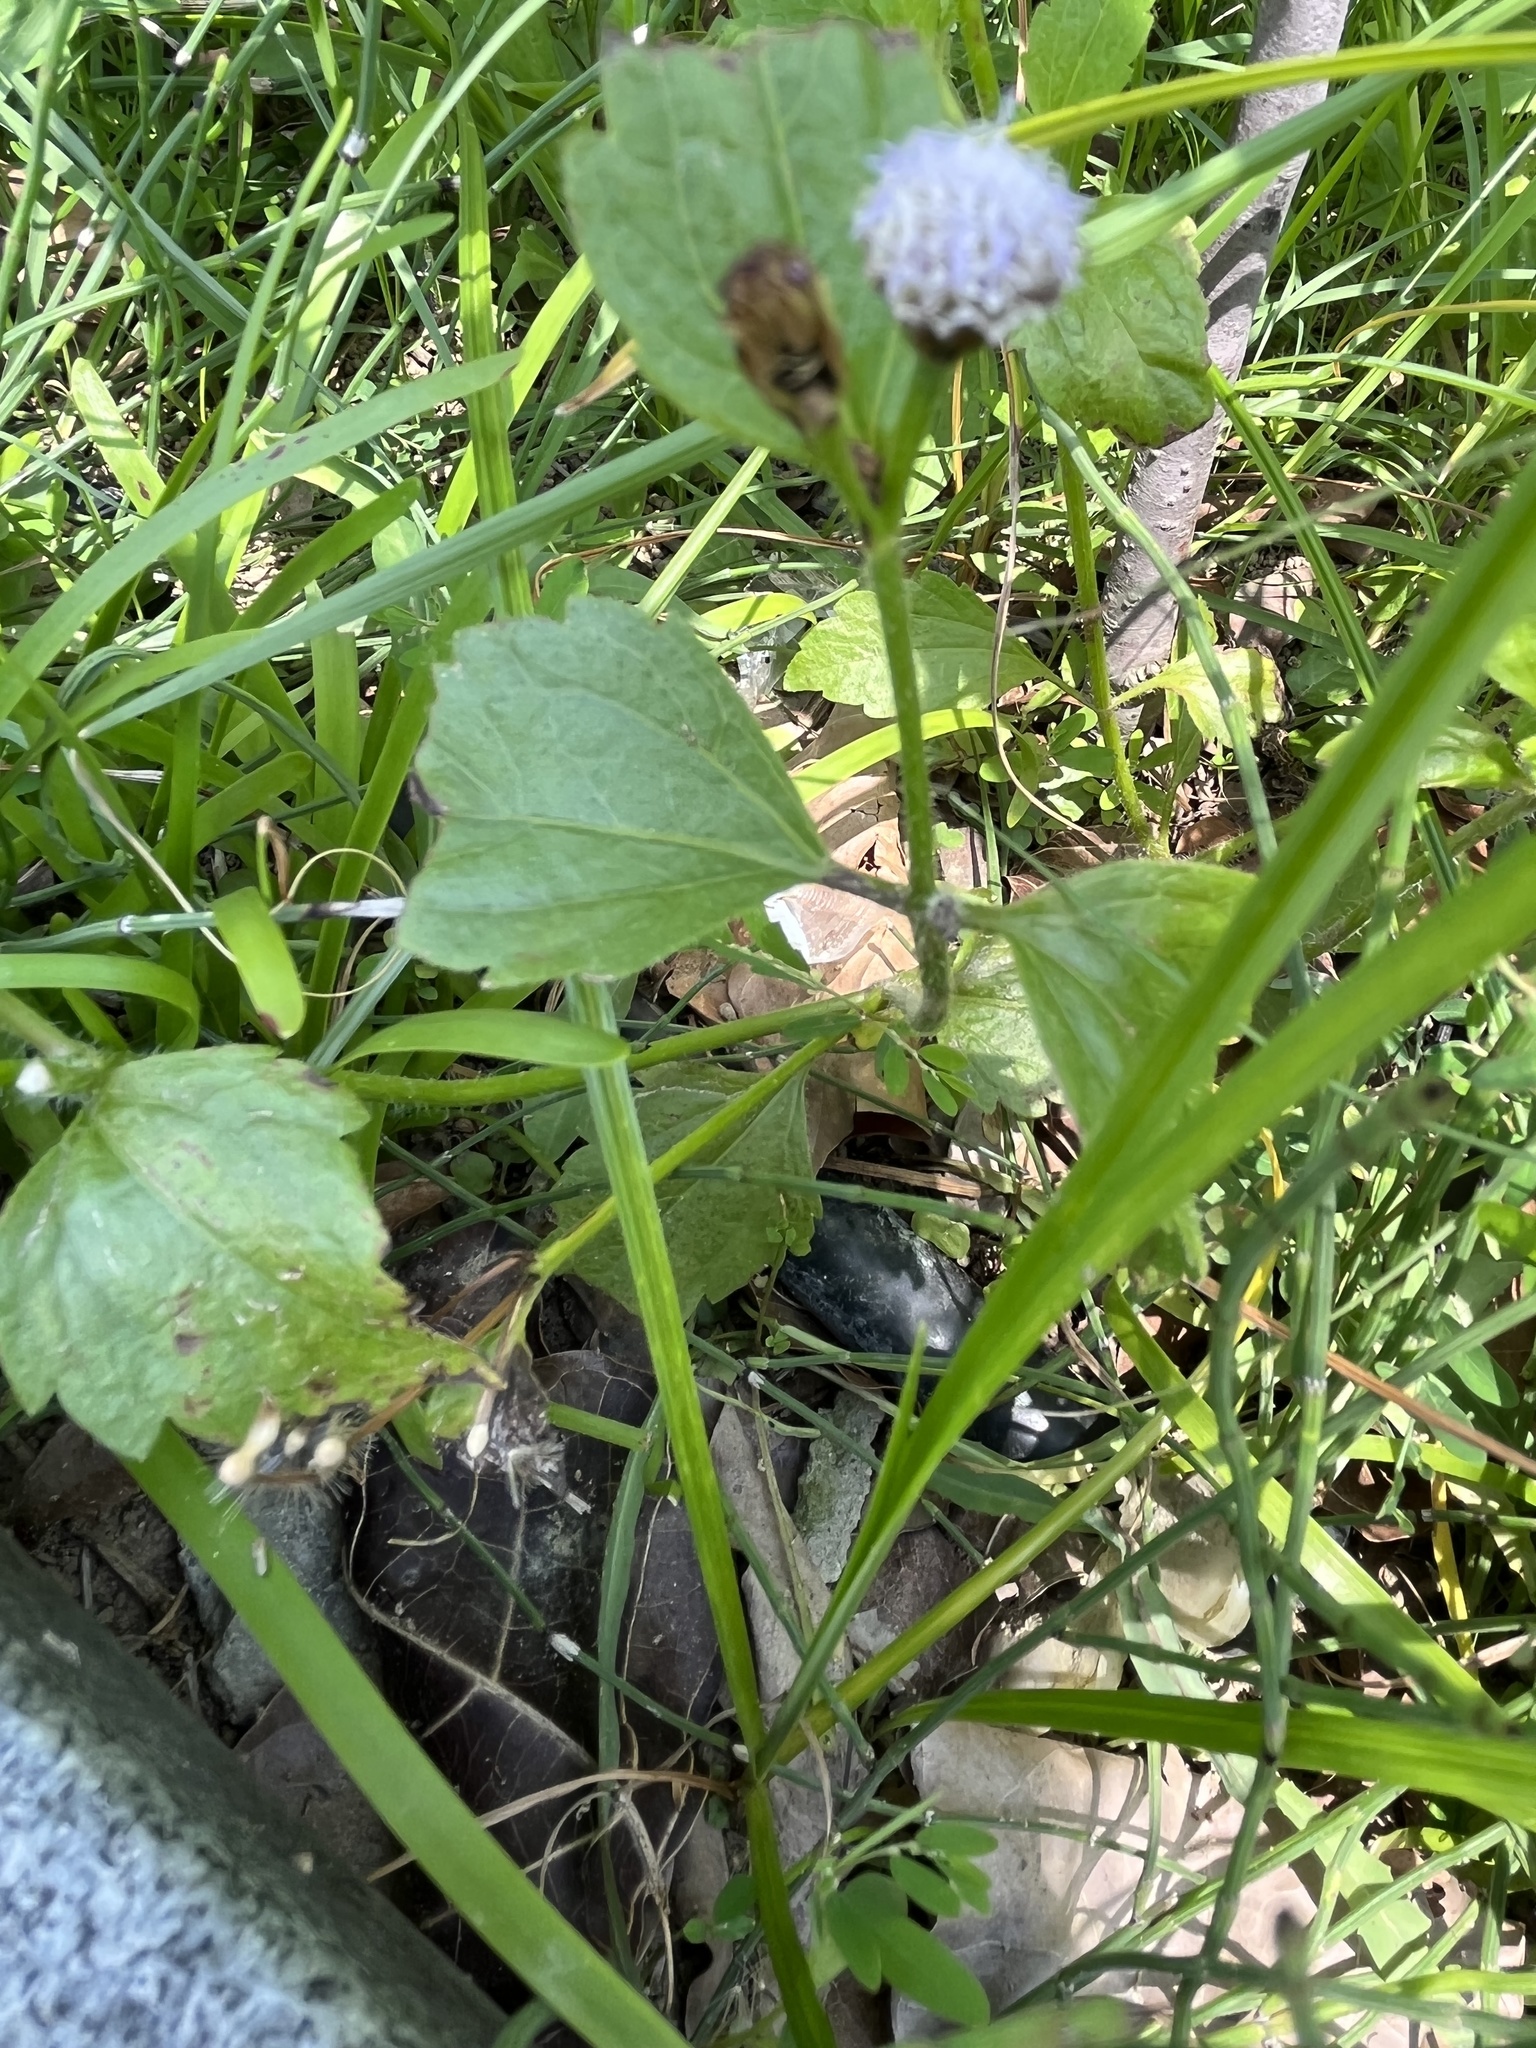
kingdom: Plantae
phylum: Tracheophyta
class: Magnoliopsida
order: Asterales
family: Asteraceae
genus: Praxelis
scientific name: Praxelis clematidea
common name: Praxelis
